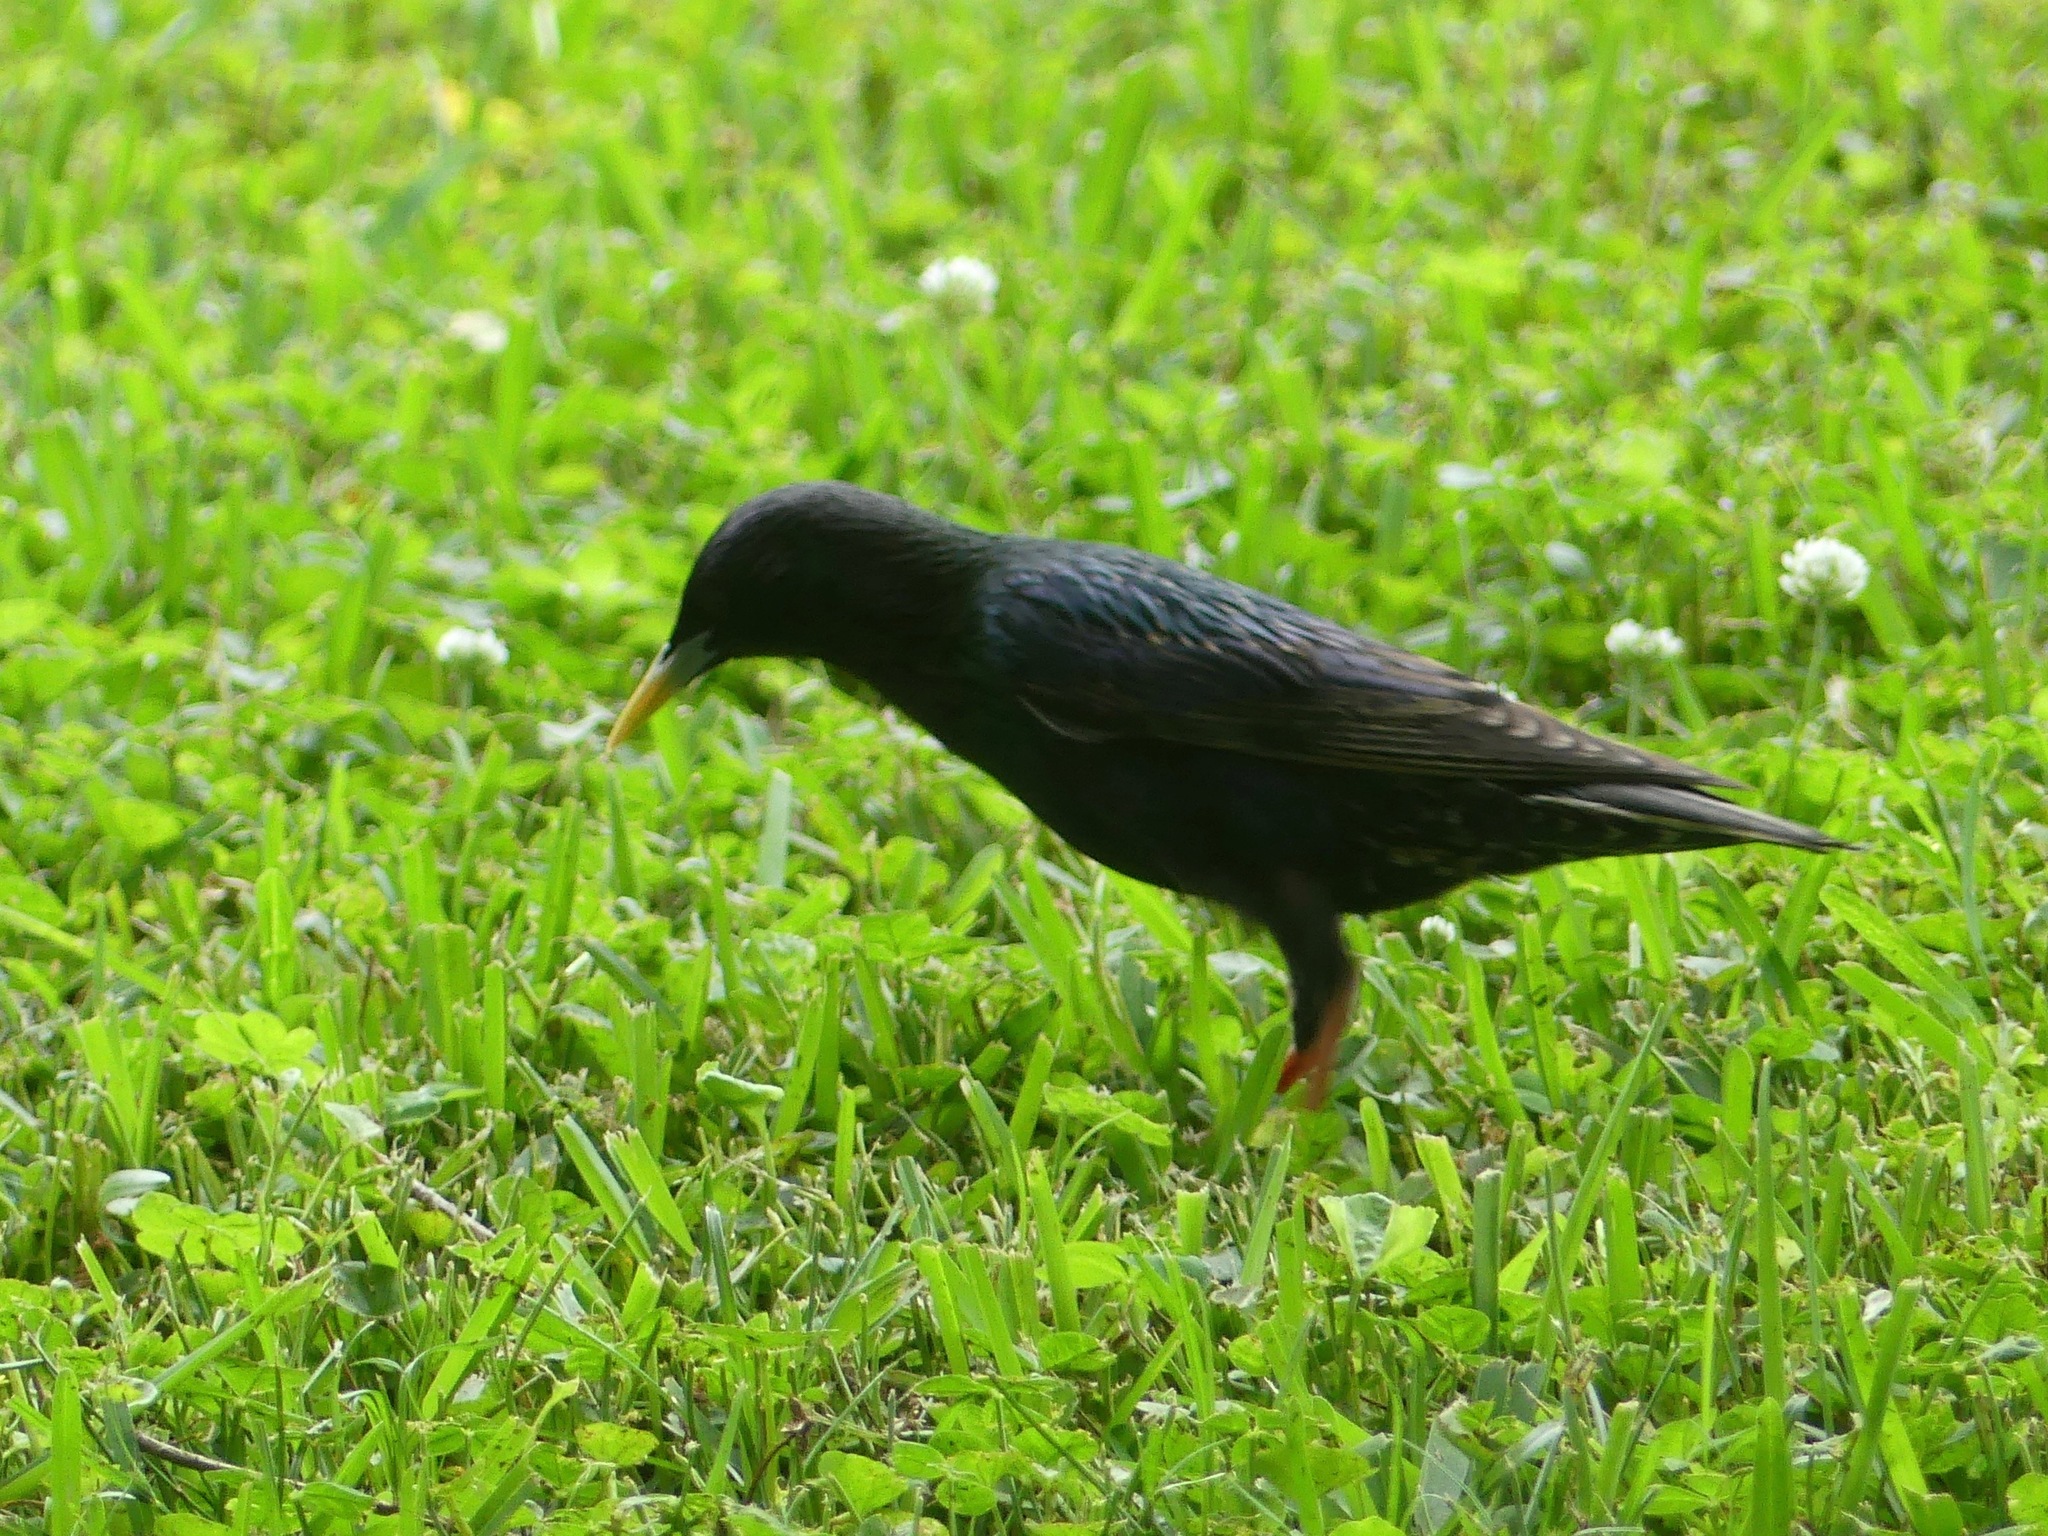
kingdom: Animalia
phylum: Chordata
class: Aves
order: Passeriformes
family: Sturnidae
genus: Sturnus
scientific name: Sturnus vulgaris
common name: Common starling
